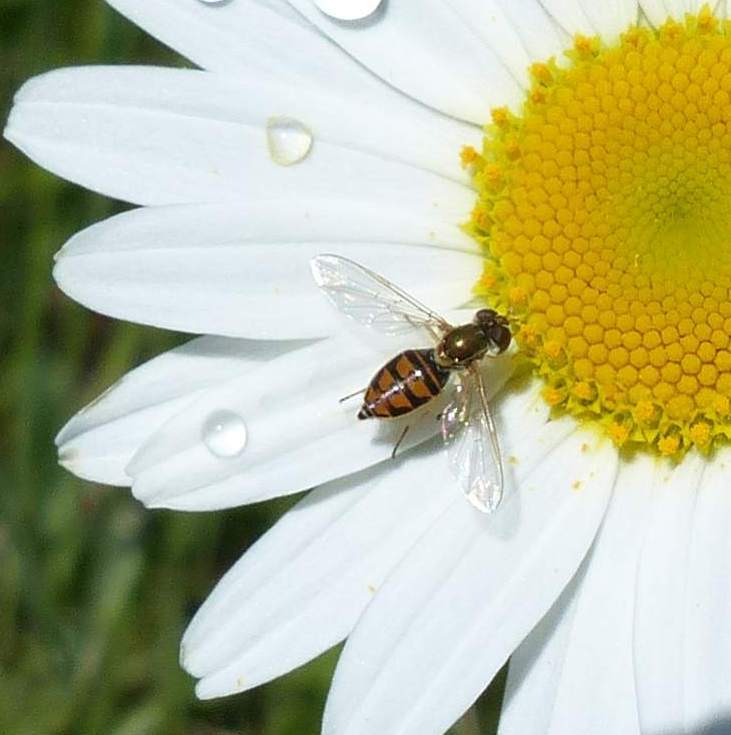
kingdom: Animalia
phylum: Arthropoda
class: Insecta
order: Diptera
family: Syrphidae
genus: Toxomerus
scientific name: Toxomerus marginatus
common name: Syrphid fly
